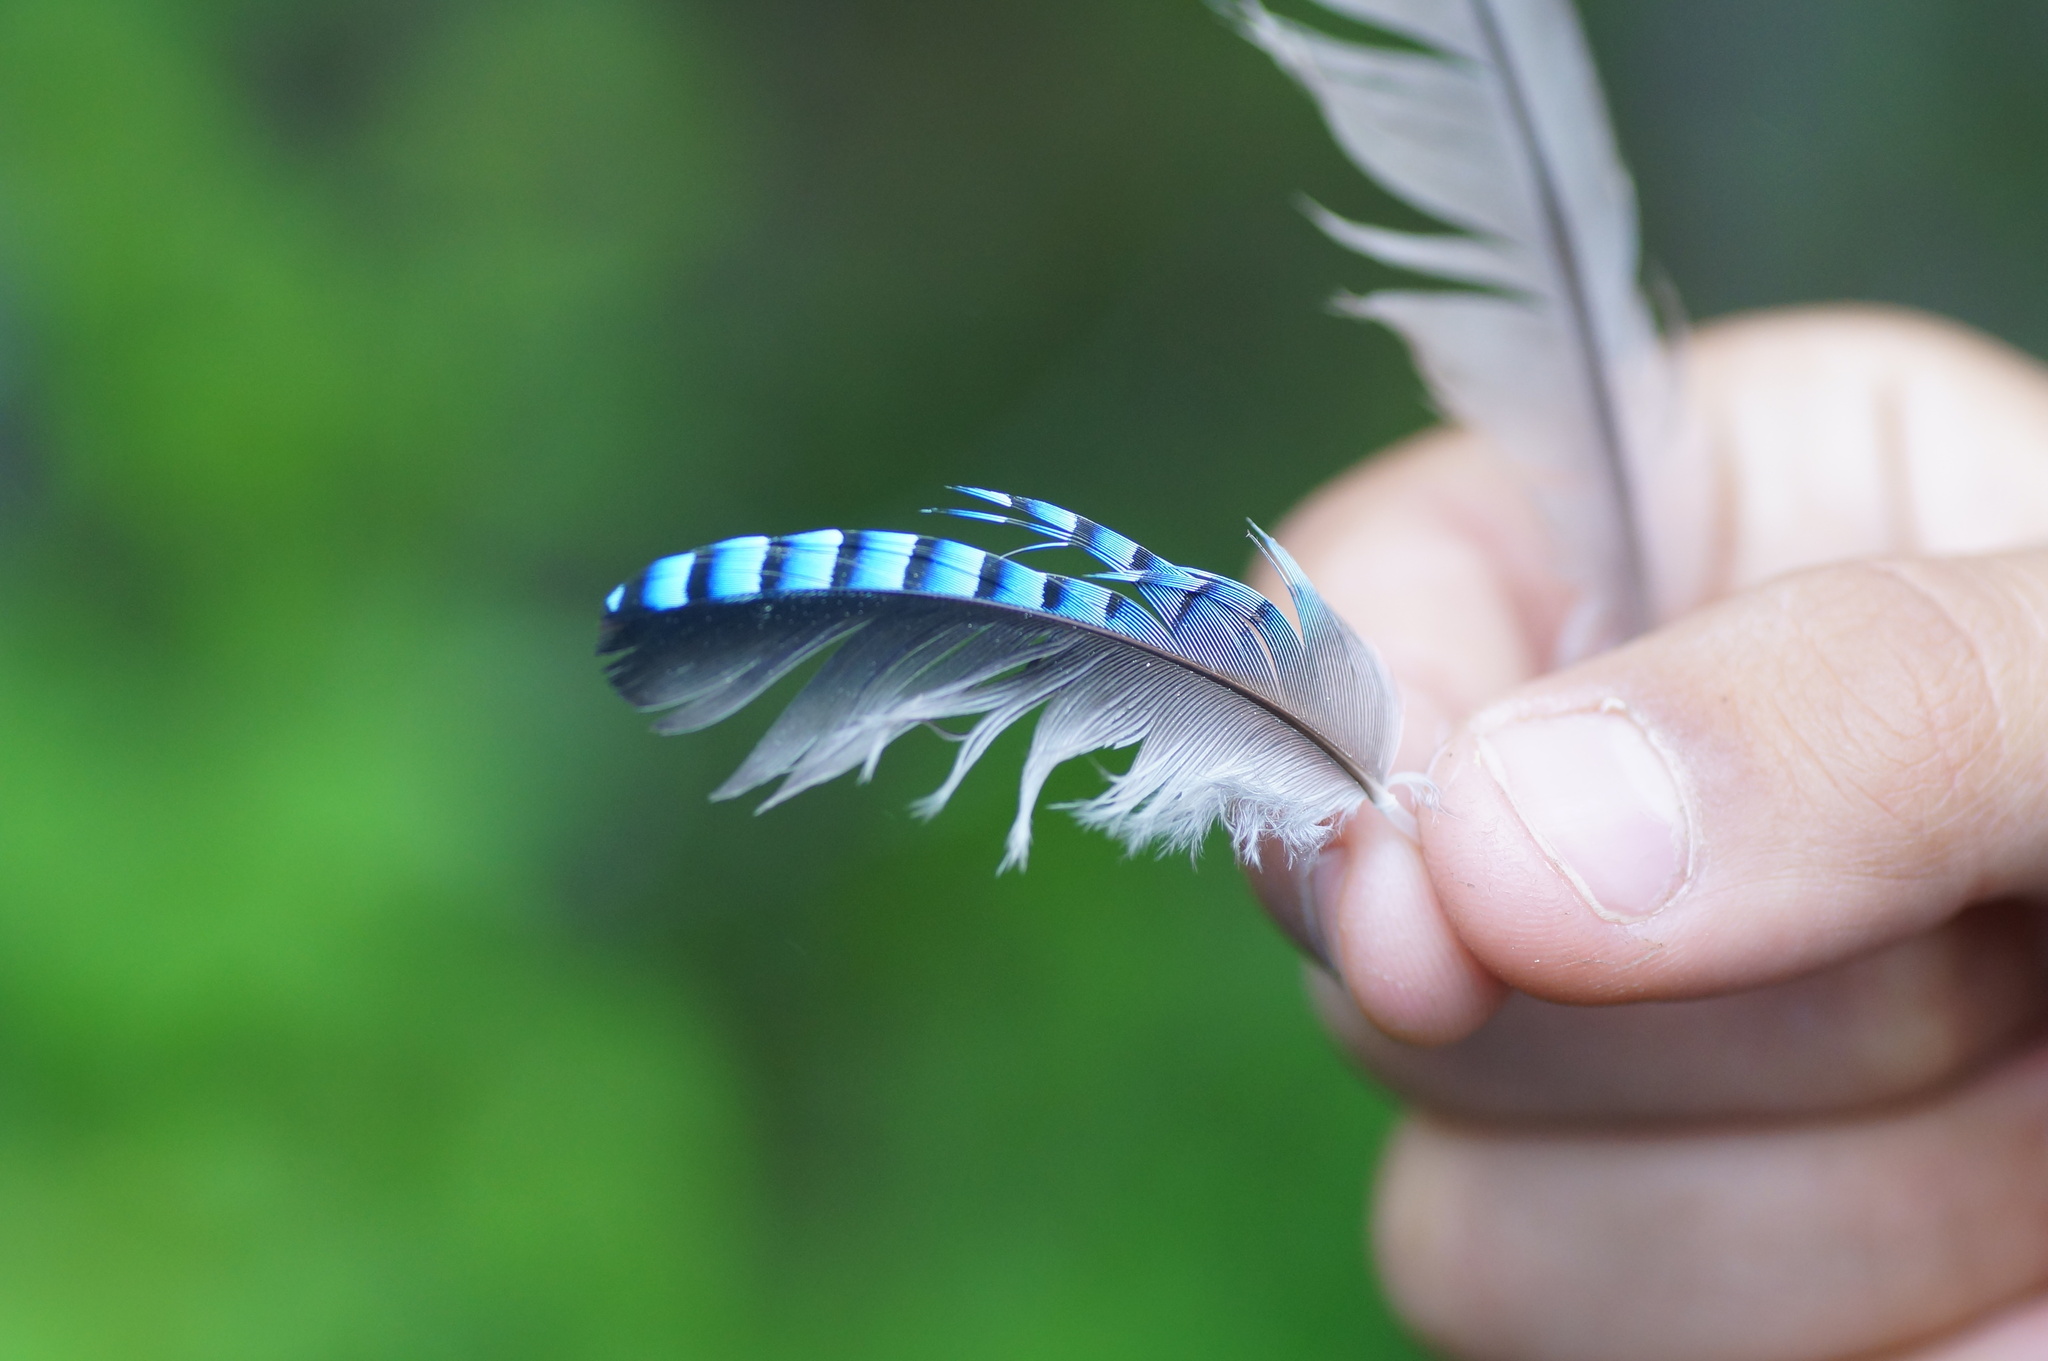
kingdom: Animalia
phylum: Chordata
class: Aves
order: Passeriformes
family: Corvidae
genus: Garrulus
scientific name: Garrulus glandarius
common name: Eurasian jay
